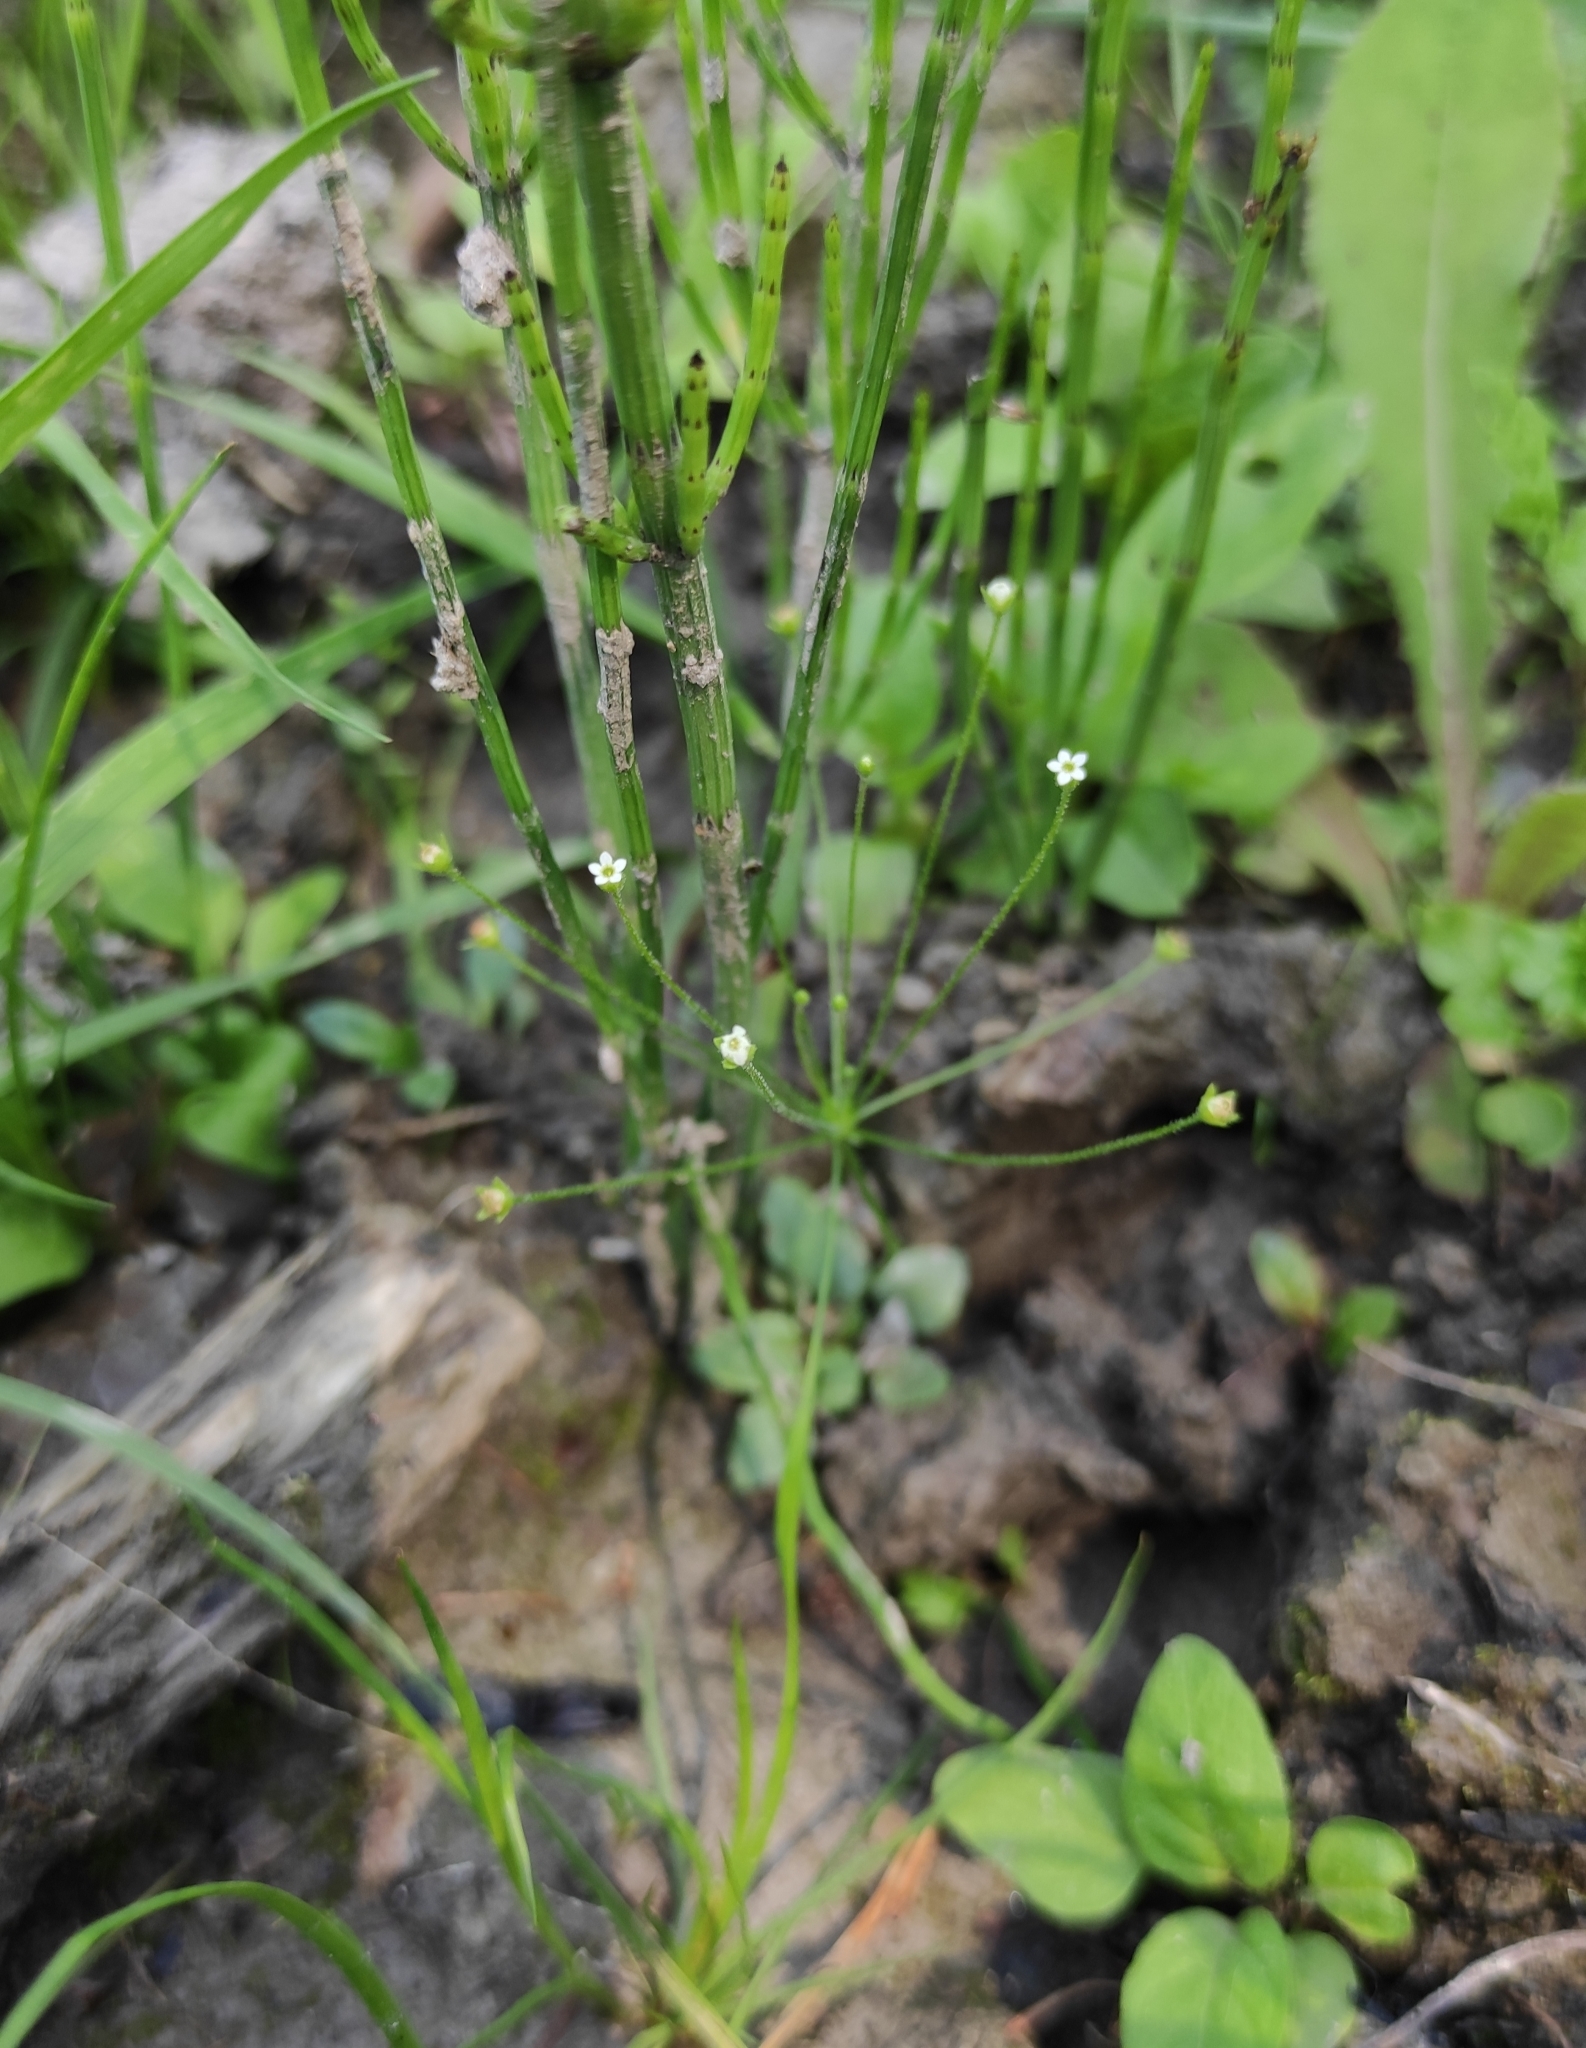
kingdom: Plantae
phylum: Tracheophyta
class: Magnoliopsida
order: Ericales
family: Primulaceae
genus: Androsace
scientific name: Androsace filiformis
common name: Filiform rock jasmine
